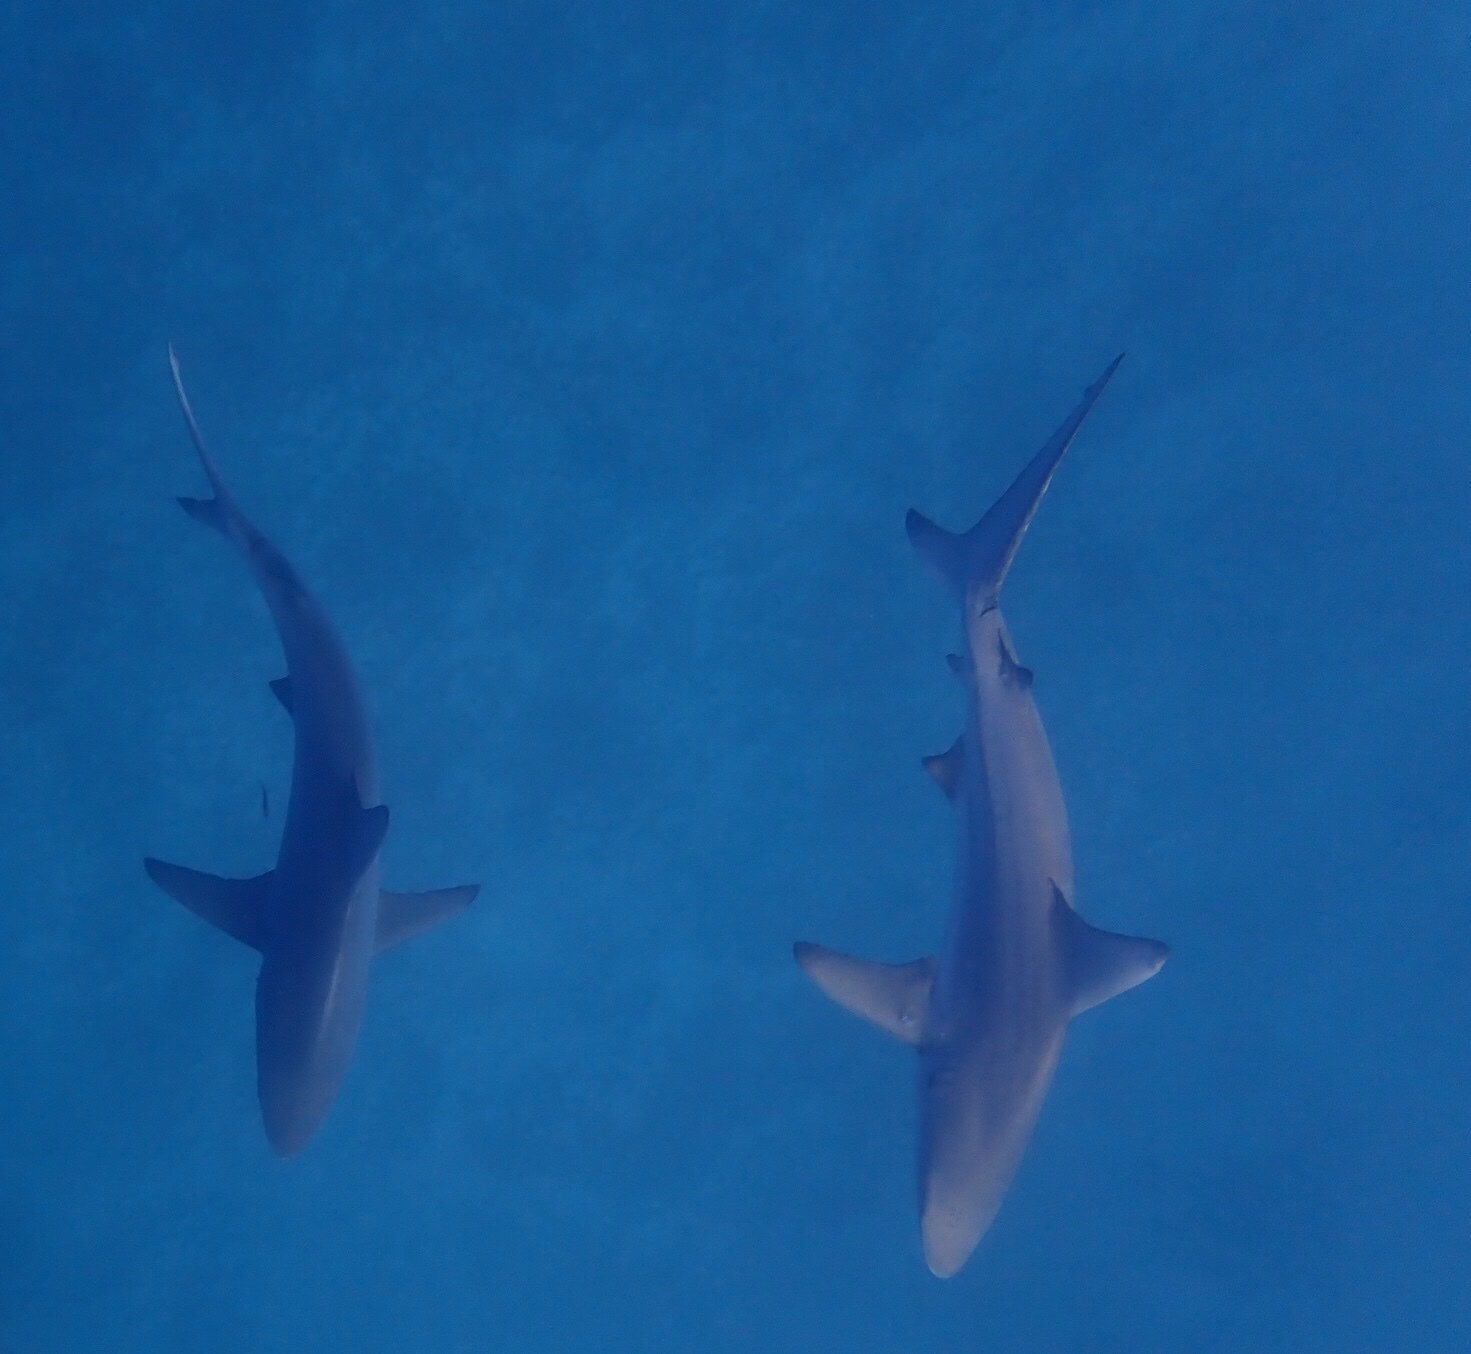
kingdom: Animalia
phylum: Chordata
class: Elasmobranchii
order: Carcharhiniformes
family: Carcharhinidae
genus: Carcharhinus
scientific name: Carcharhinus limbatus
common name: Blacktip shark
